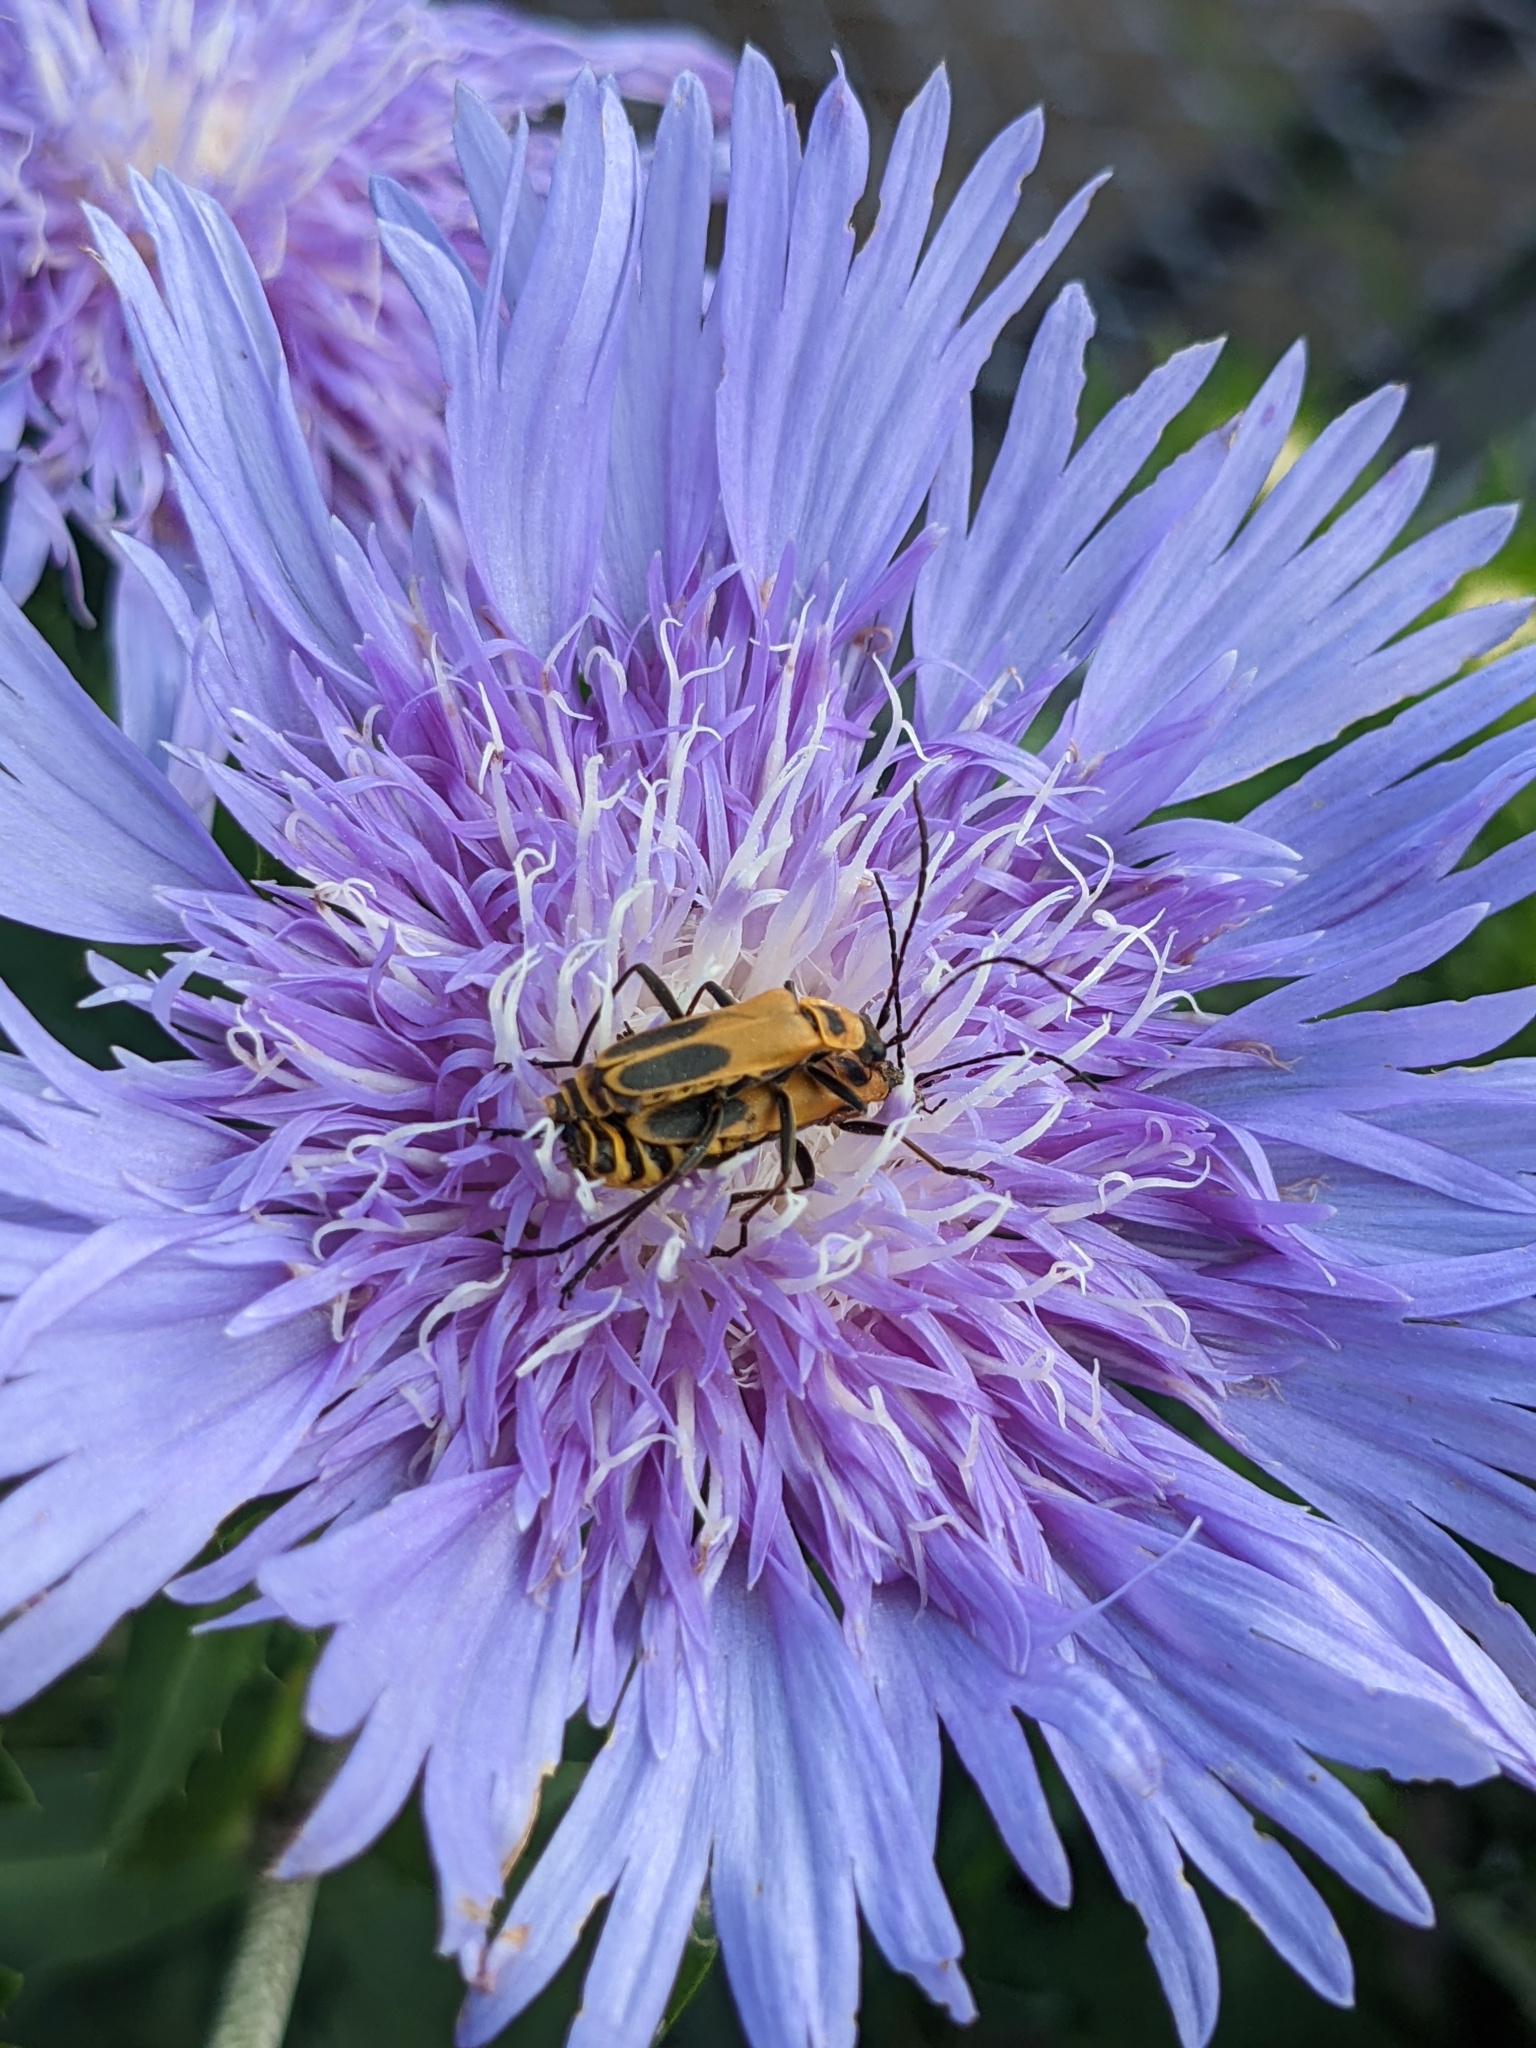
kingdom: Animalia
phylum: Arthropoda
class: Insecta
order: Coleoptera
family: Cantharidae
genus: Chauliognathus
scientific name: Chauliognathus pensylvanicus
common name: Goldenrod soldier beetle
